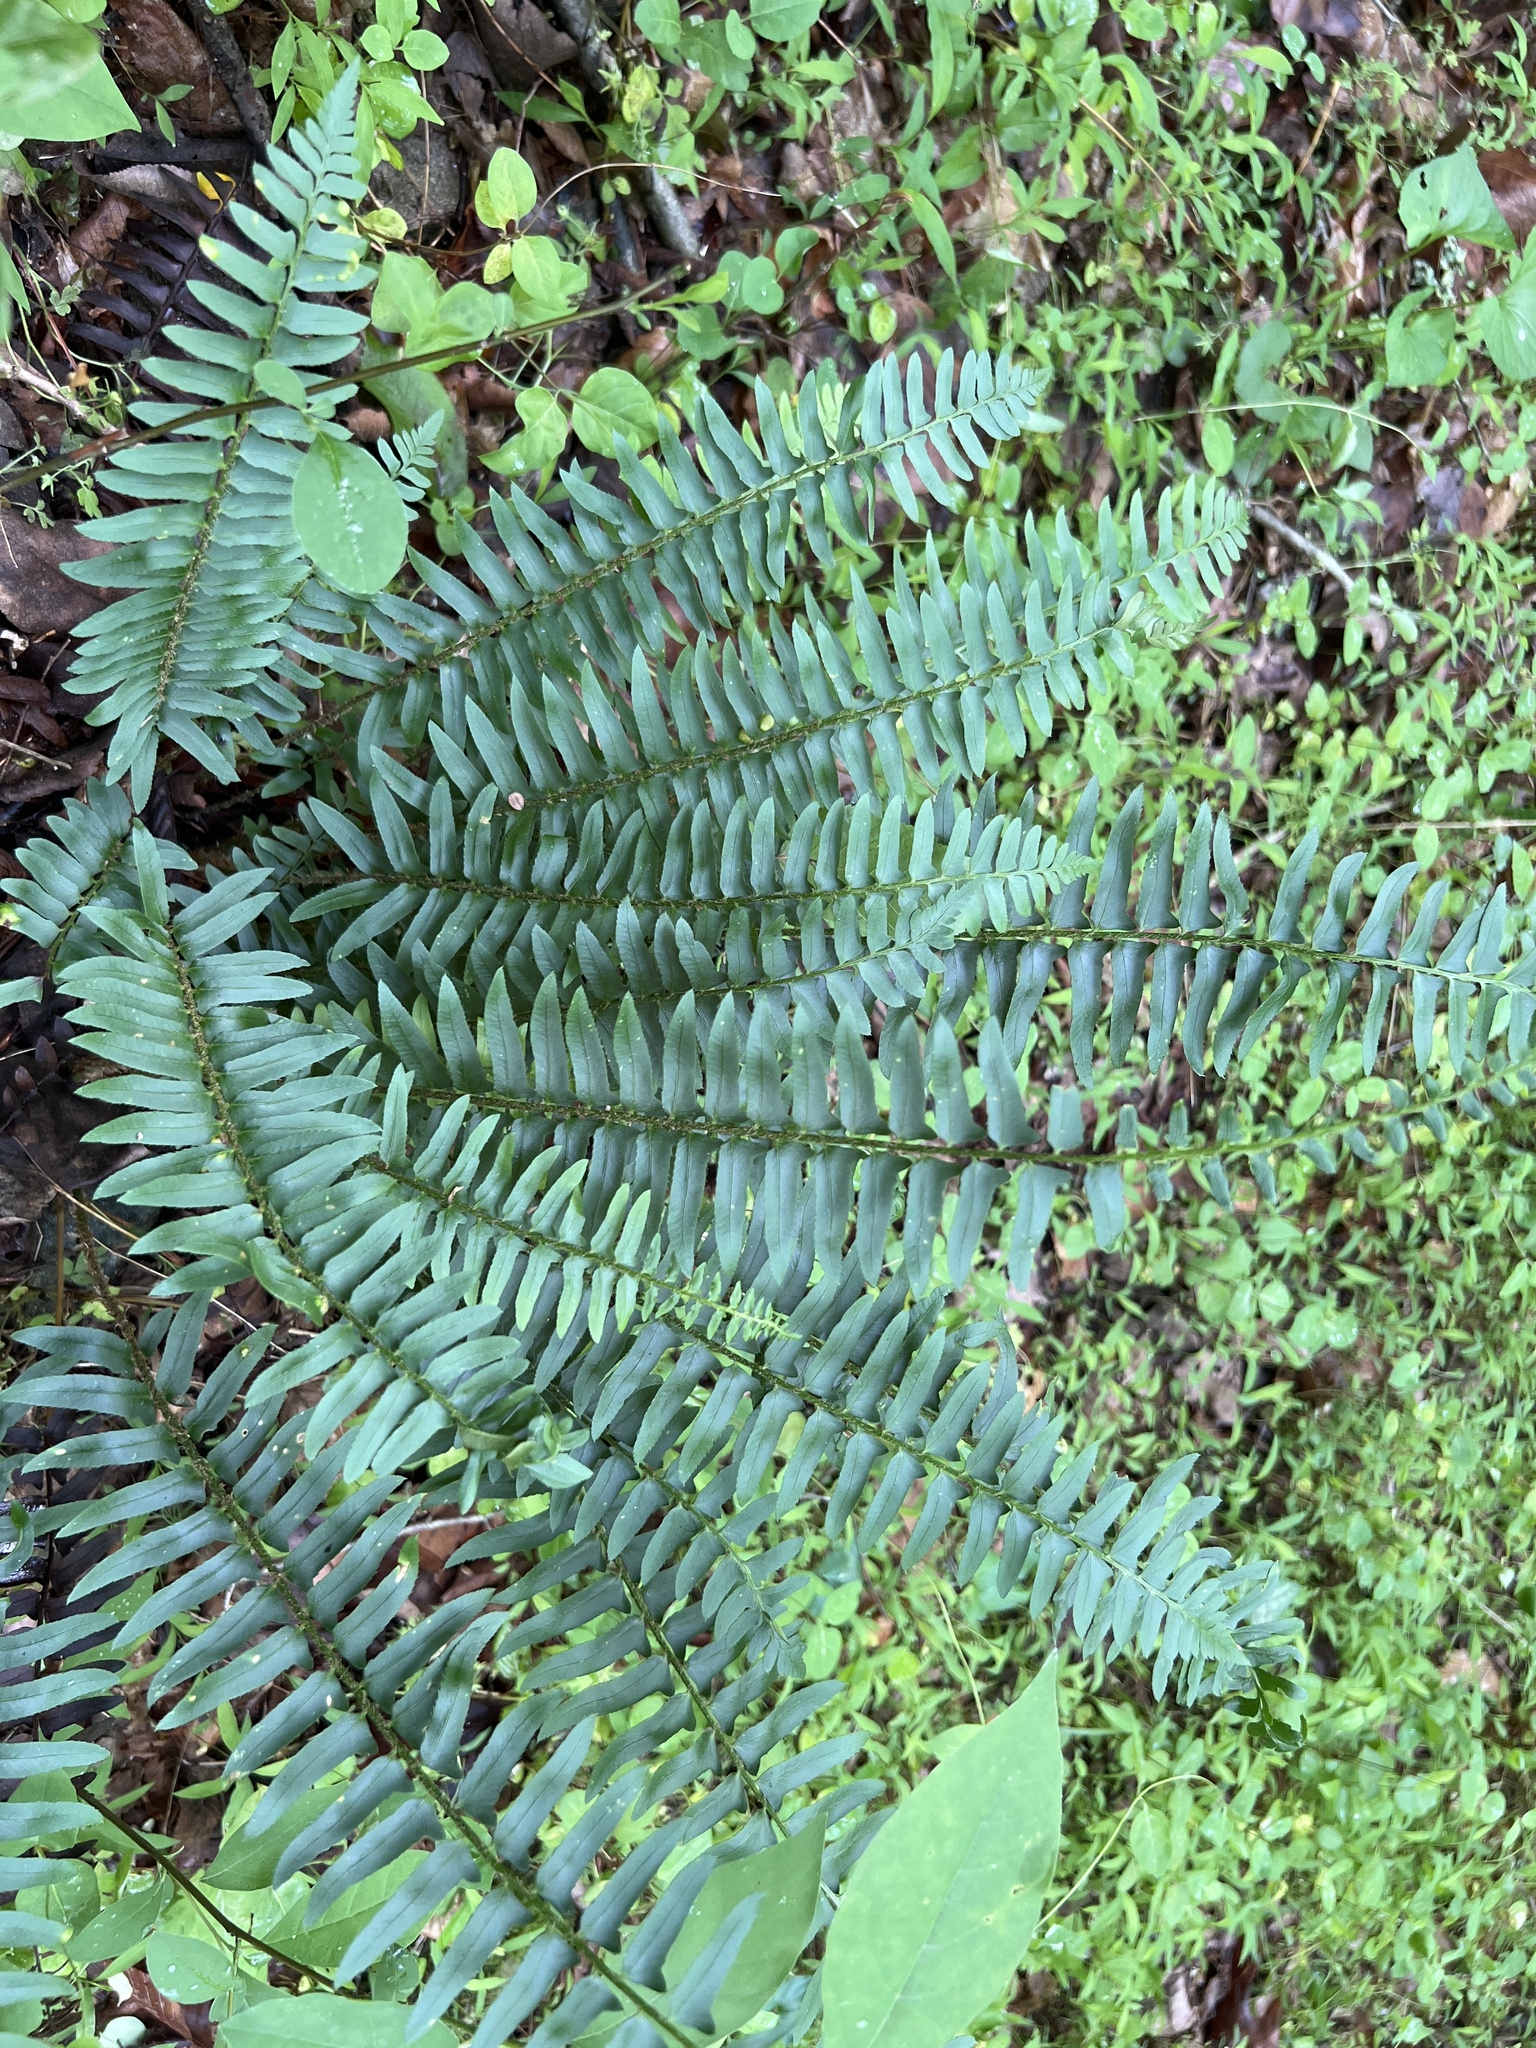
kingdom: Plantae
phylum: Tracheophyta
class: Polypodiopsida
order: Polypodiales
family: Dryopteridaceae
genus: Polystichum
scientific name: Polystichum acrostichoides
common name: Christmas fern
